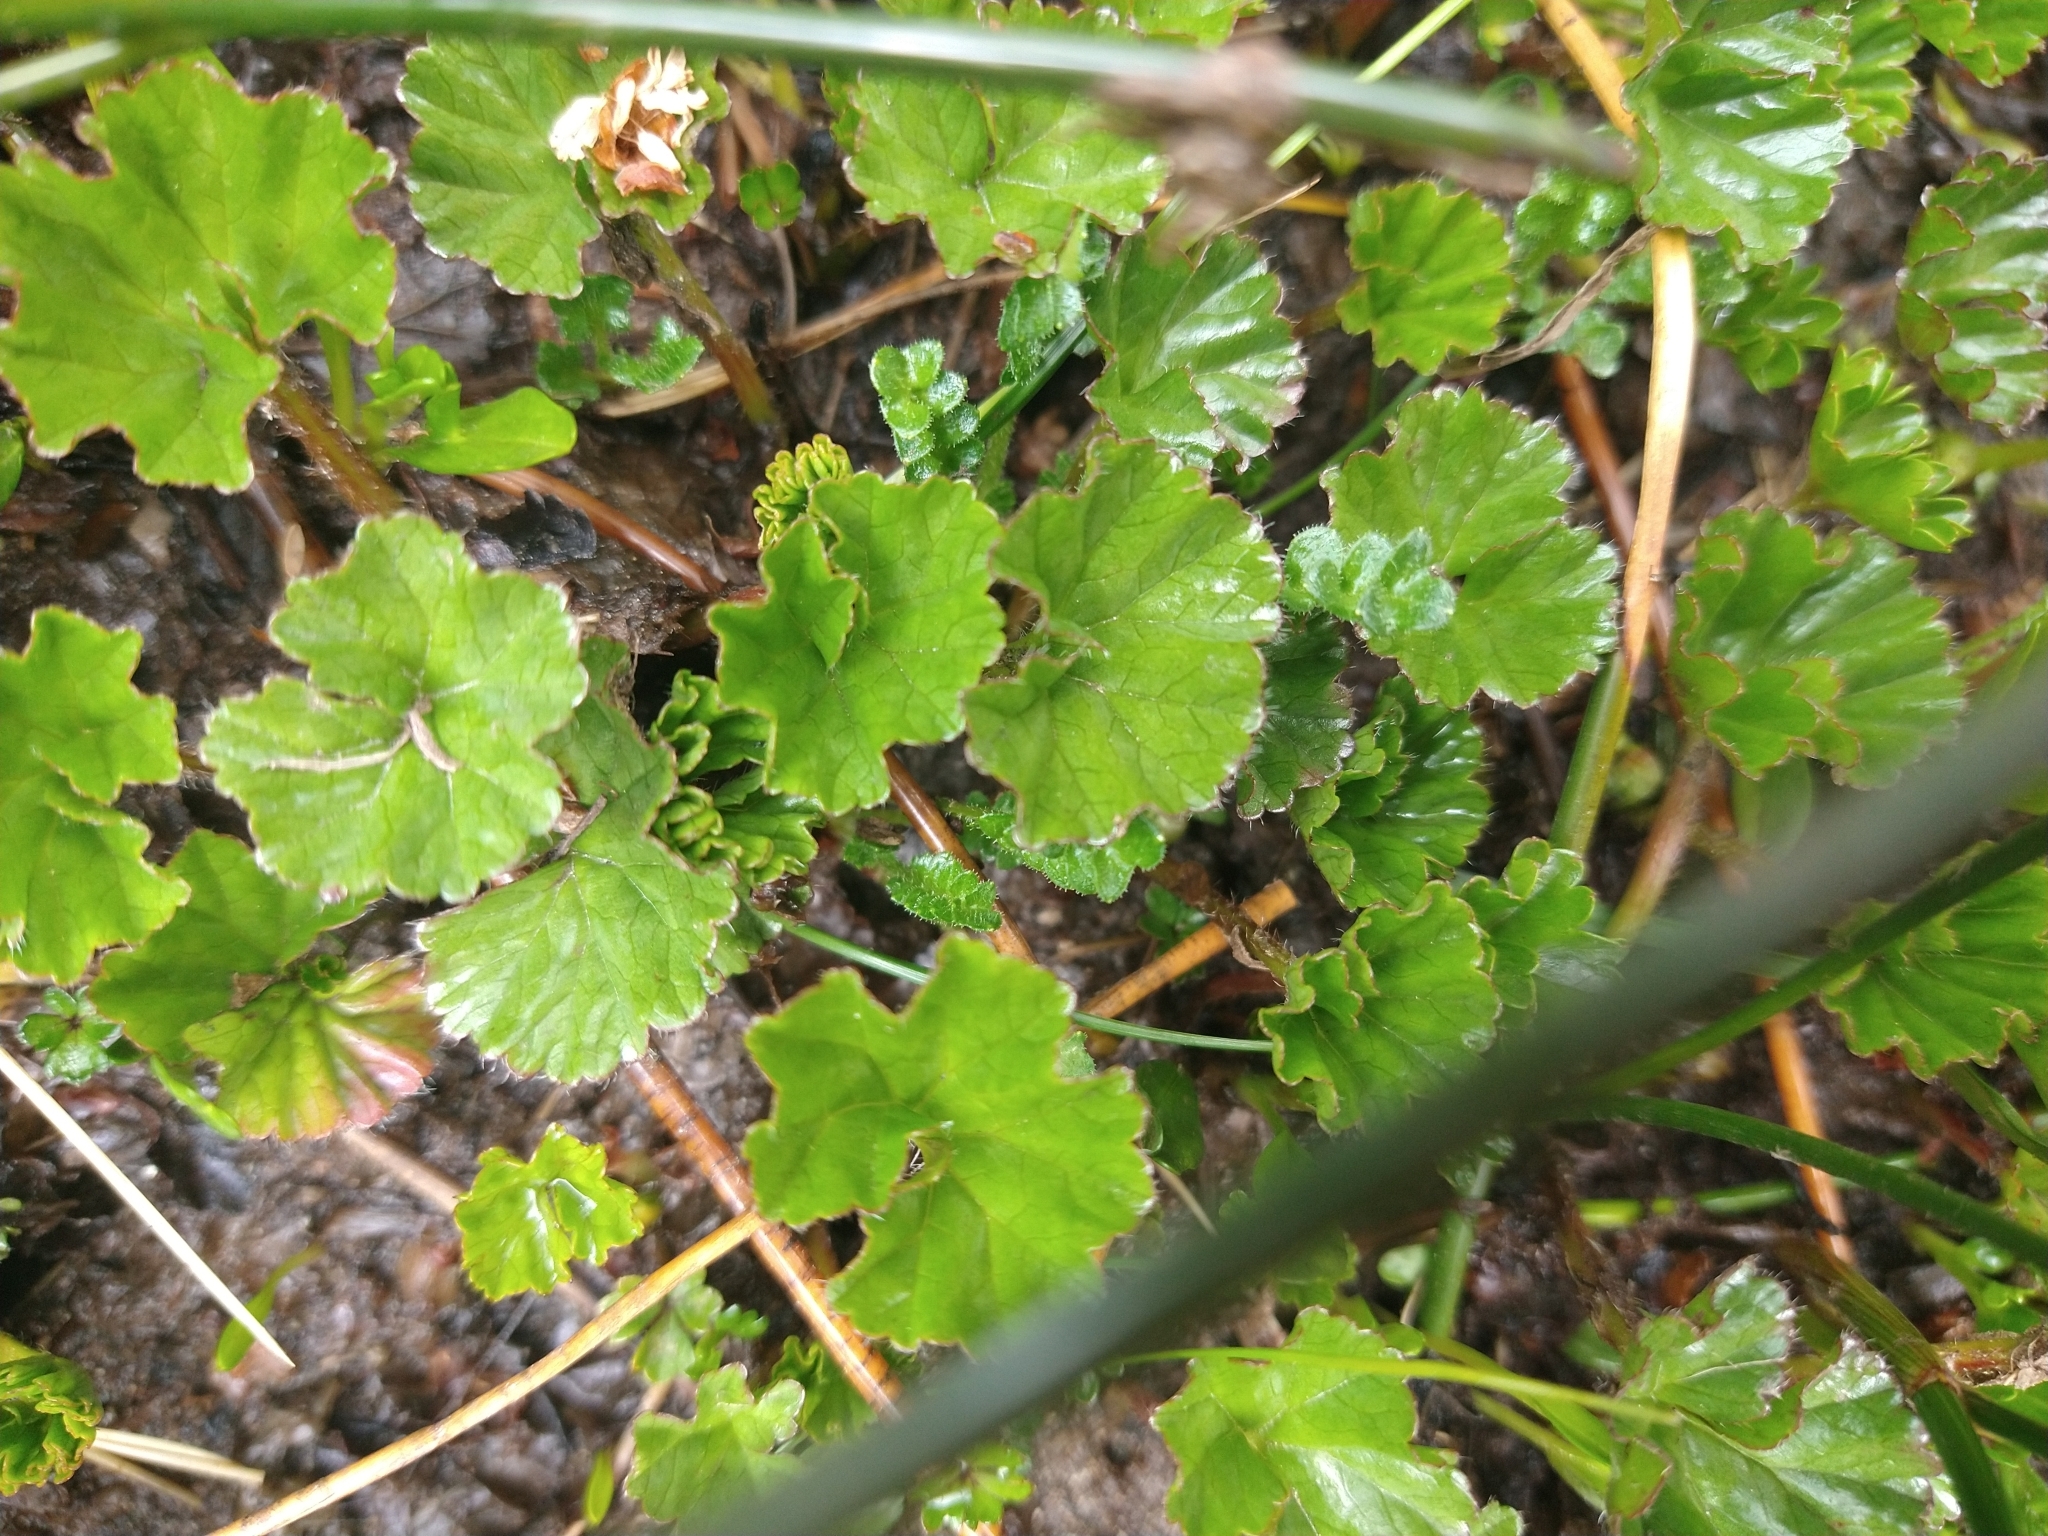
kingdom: Plantae
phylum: Tracheophyta
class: Magnoliopsida
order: Gunnerales
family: Gunneraceae
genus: Gunnera
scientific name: Gunnera magellanica
